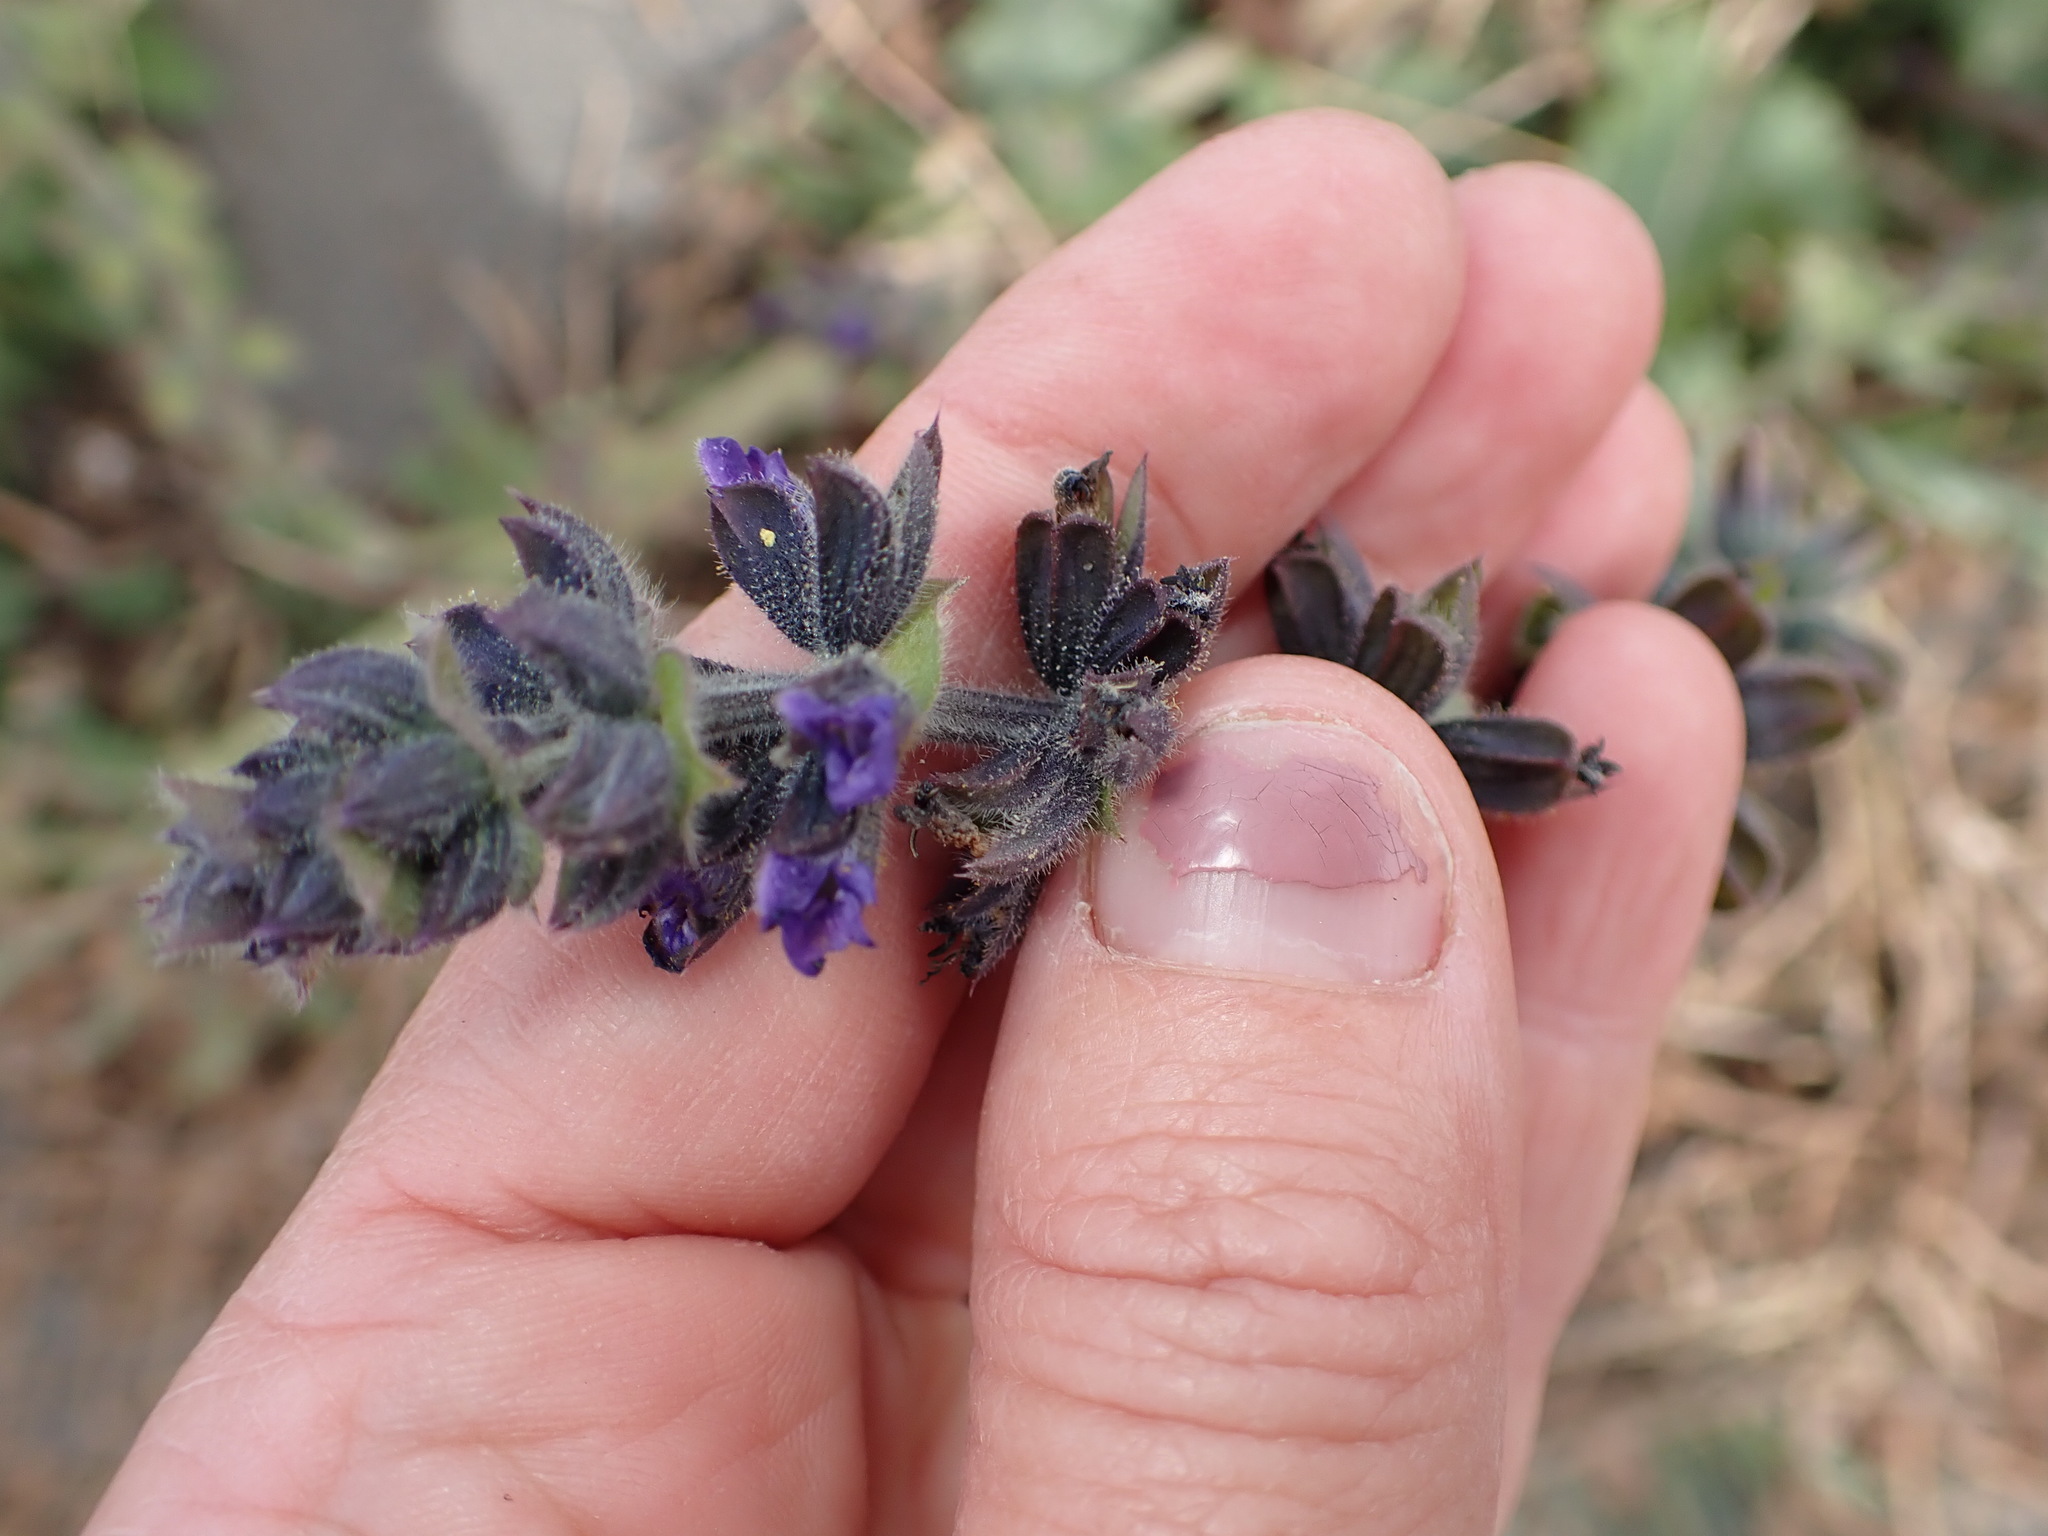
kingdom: Plantae
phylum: Tracheophyta
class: Magnoliopsida
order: Lamiales
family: Lamiaceae
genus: Salvia
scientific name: Salvia verbenaca
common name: Wild clary
